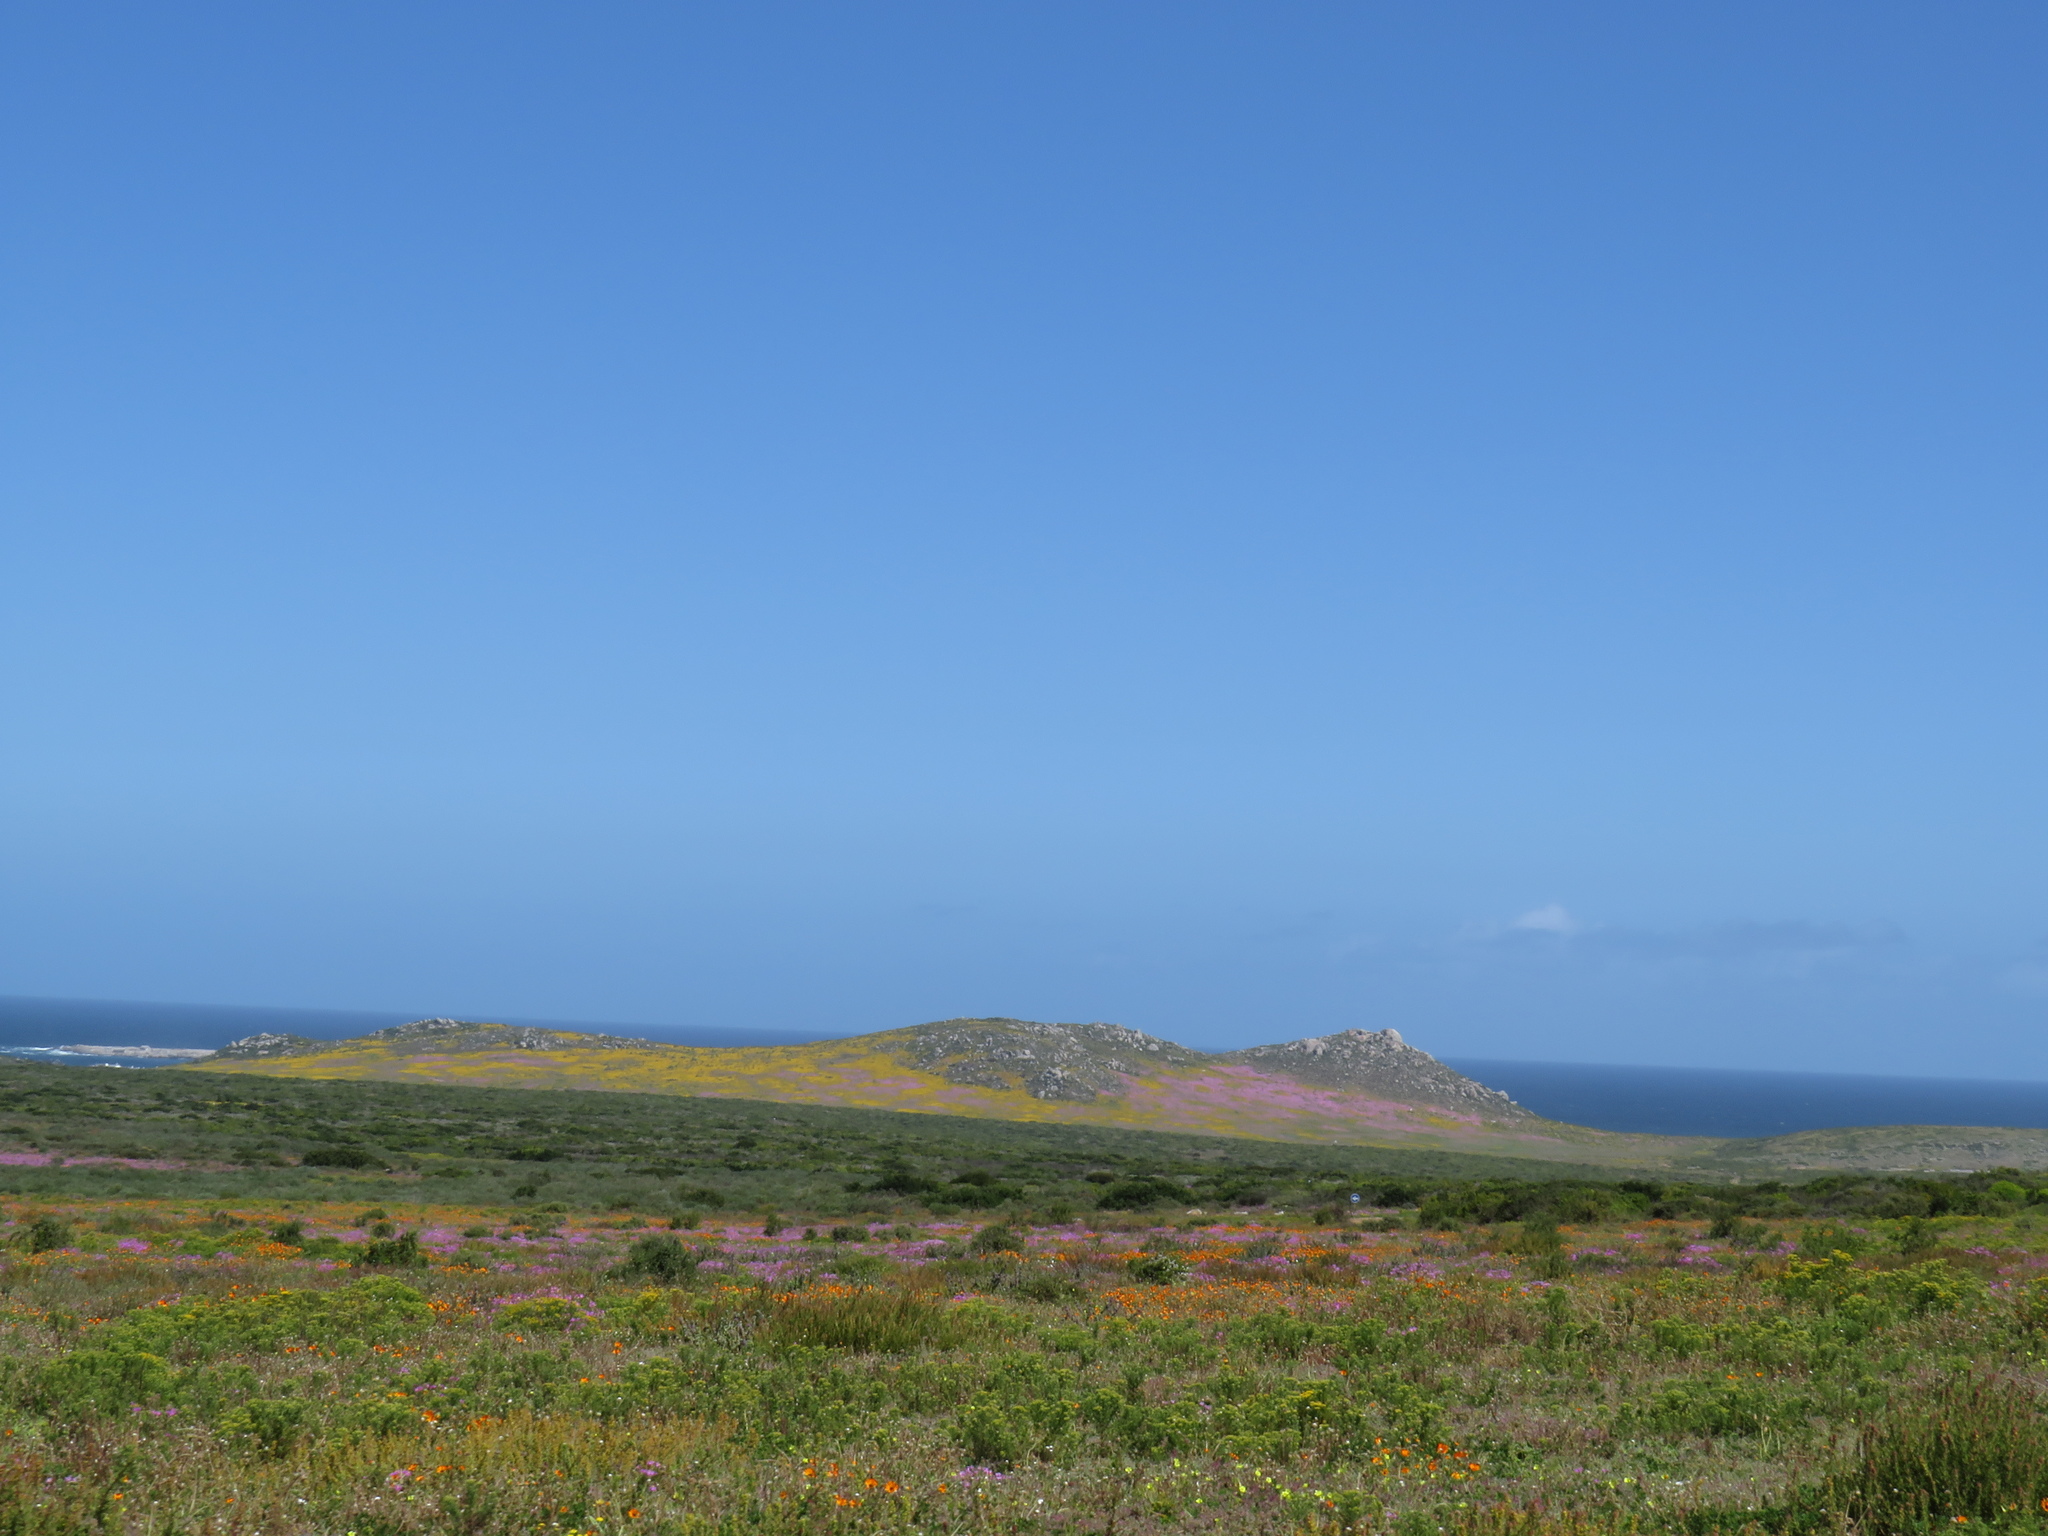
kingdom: Plantae
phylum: Tracheophyta
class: Magnoliopsida
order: Asterales
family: Asteraceae
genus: Oncosiphon
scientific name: Oncosiphon suffruticosus
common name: Shrubby mayweed
